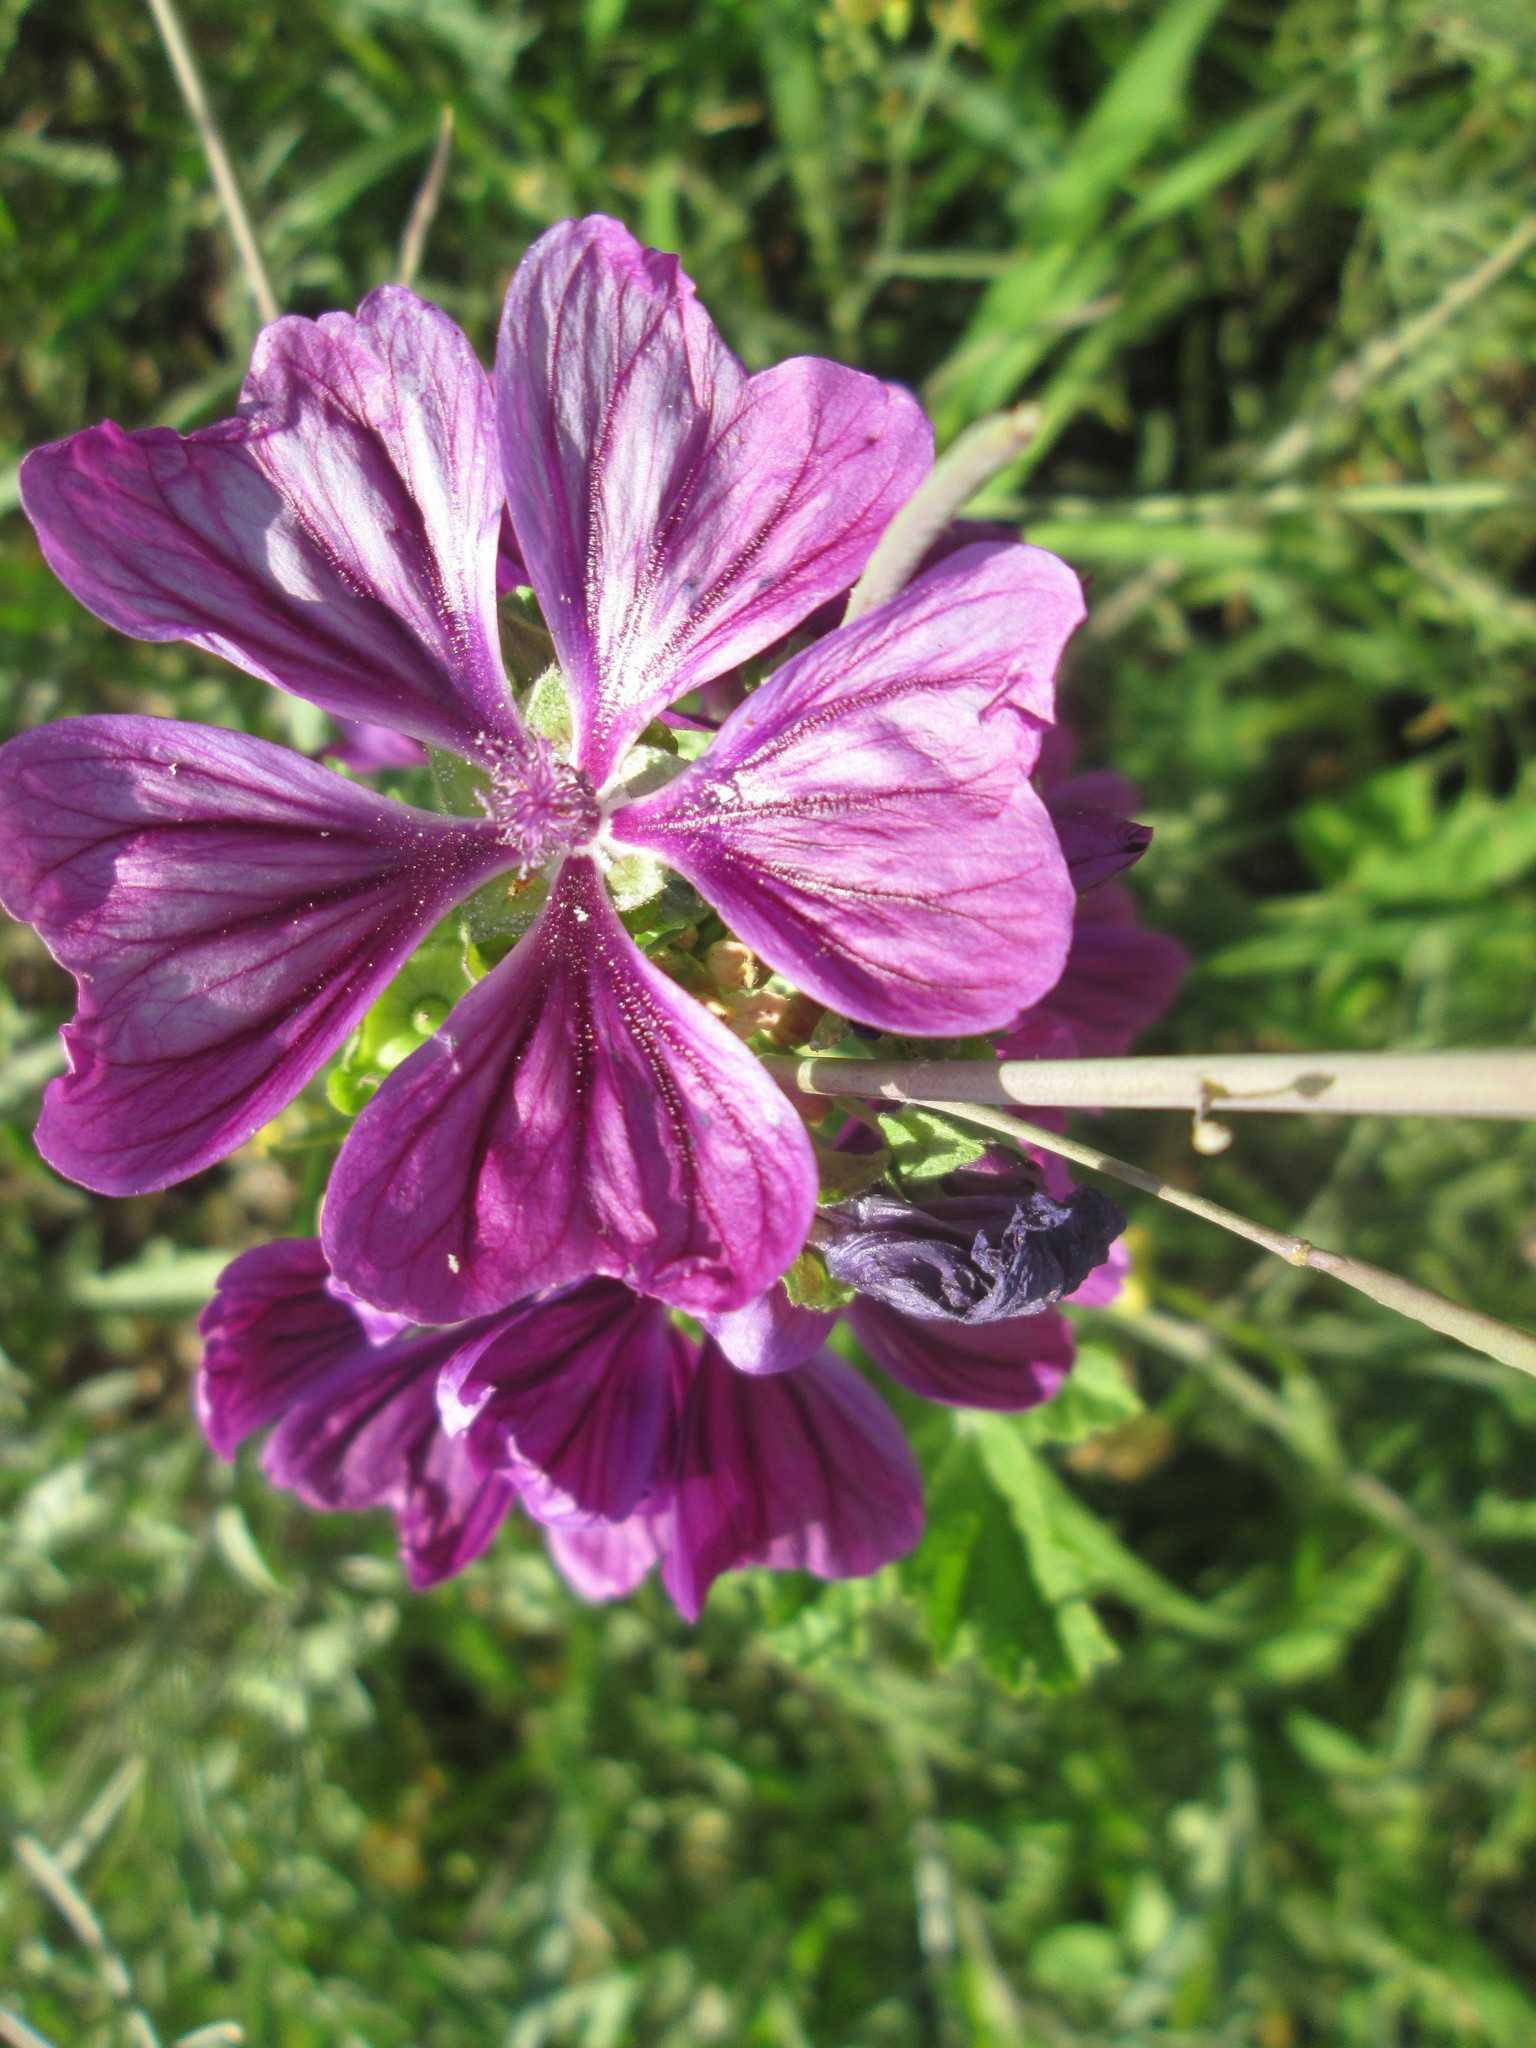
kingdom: Plantae
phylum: Tracheophyta
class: Magnoliopsida
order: Malvales
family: Malvaceae
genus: Malva
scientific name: Malva sylvestris
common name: Common mallow
